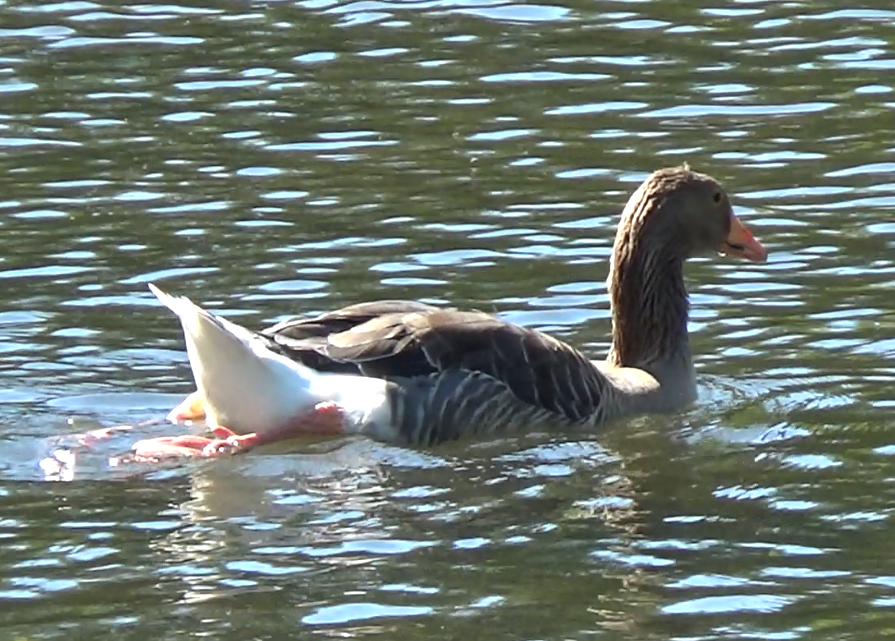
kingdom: Animalia
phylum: Chordata
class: Aves
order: Anseriformes
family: Anatidae
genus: Anser
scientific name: Anser anser
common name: Greylag goose
